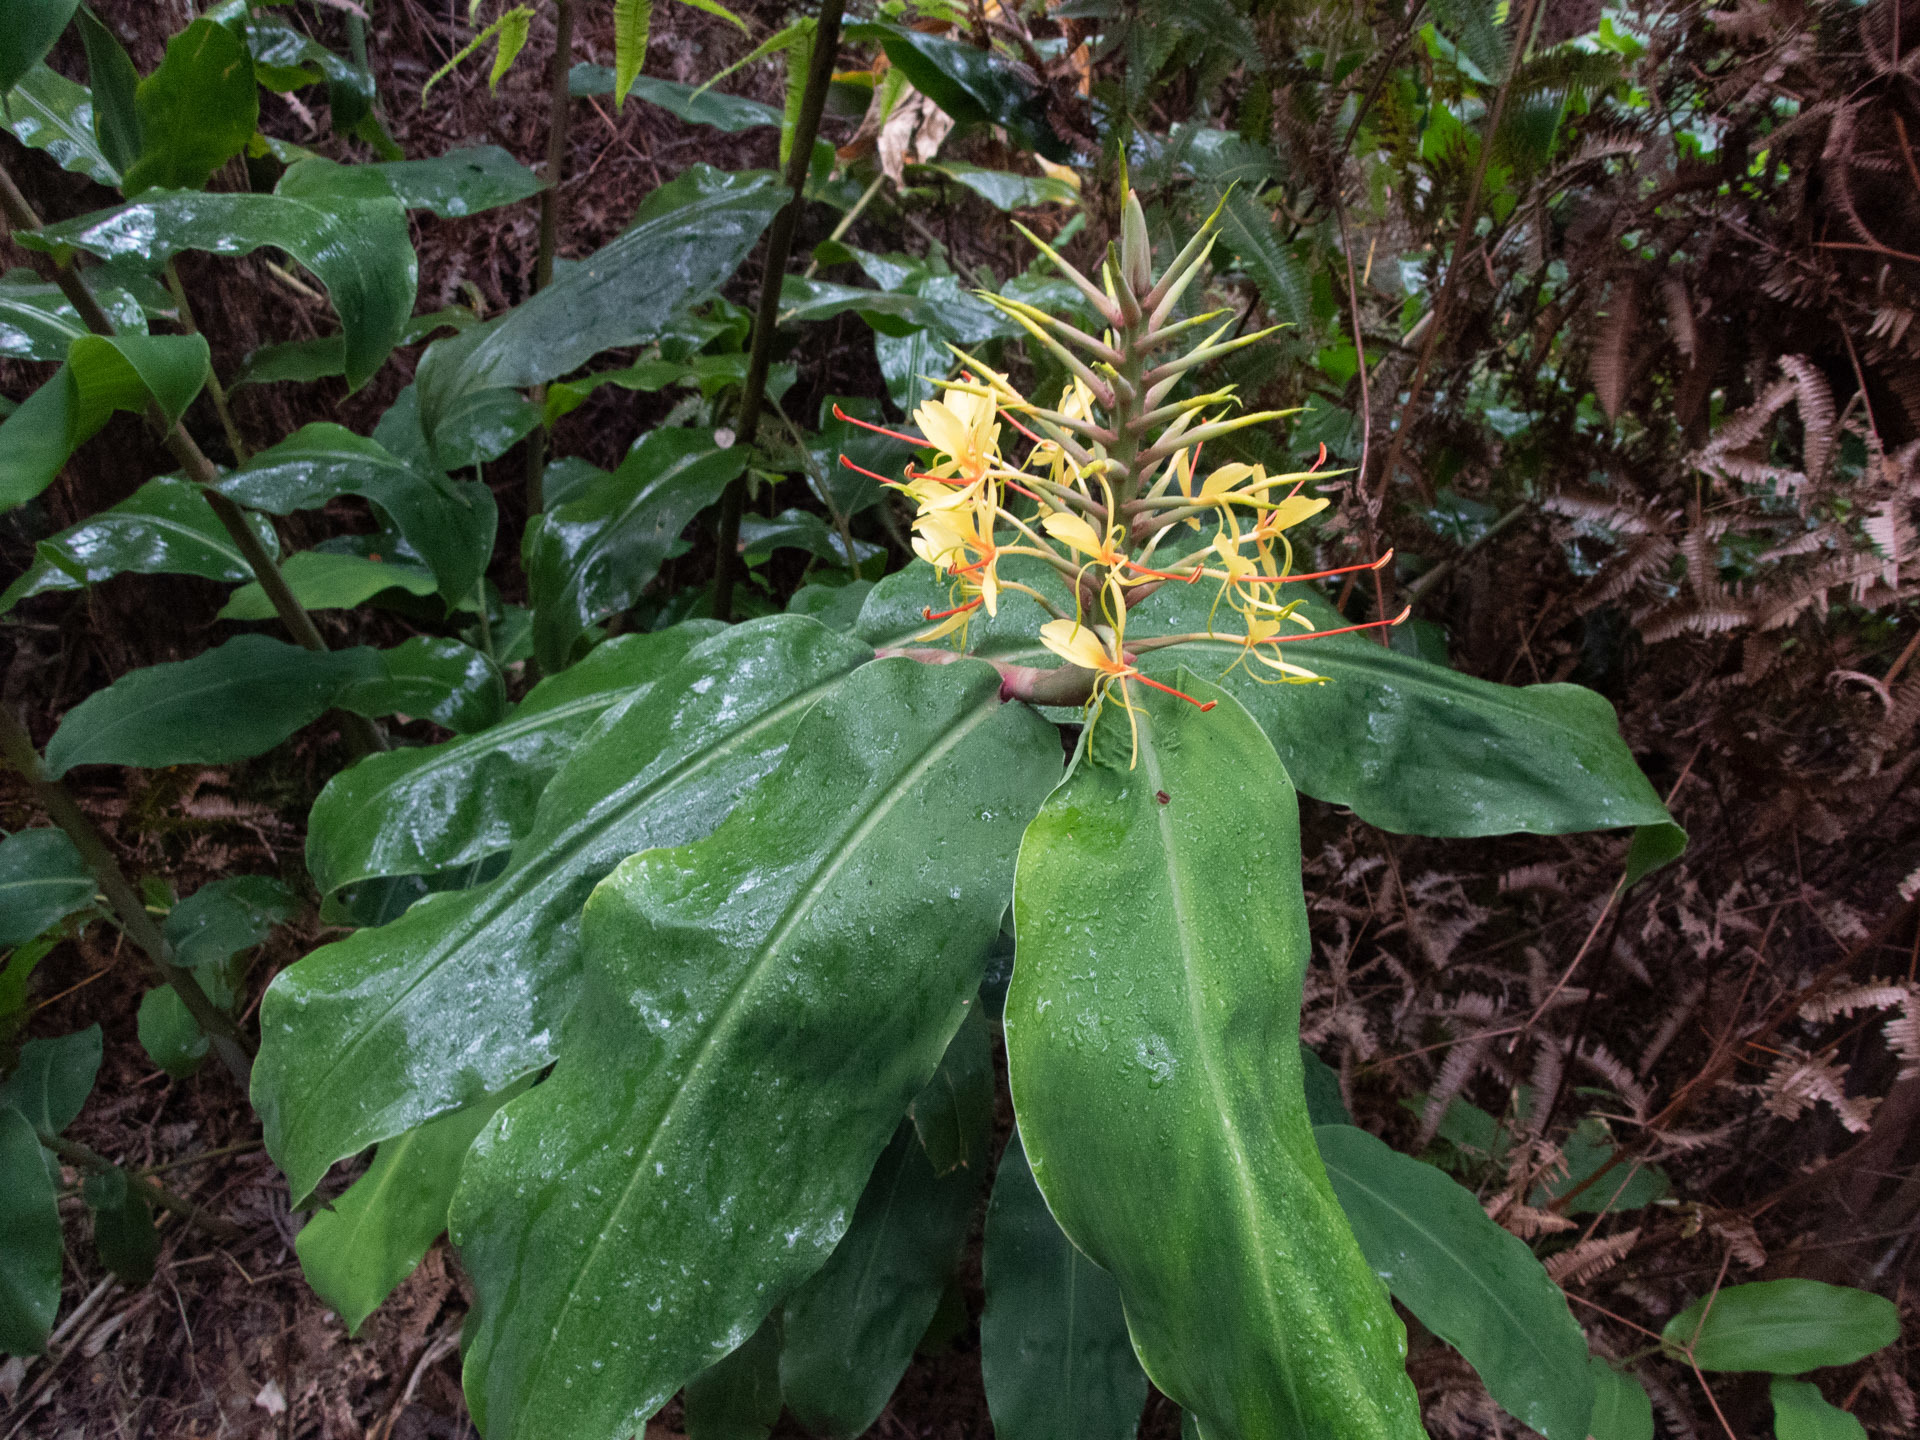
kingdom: Plantae
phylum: Tracheophyta
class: Liliopsida
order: Zingiberales
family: Zingiberaceae
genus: Hedychium
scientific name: Hedychium gardnerianum
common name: Himalayan ginger
